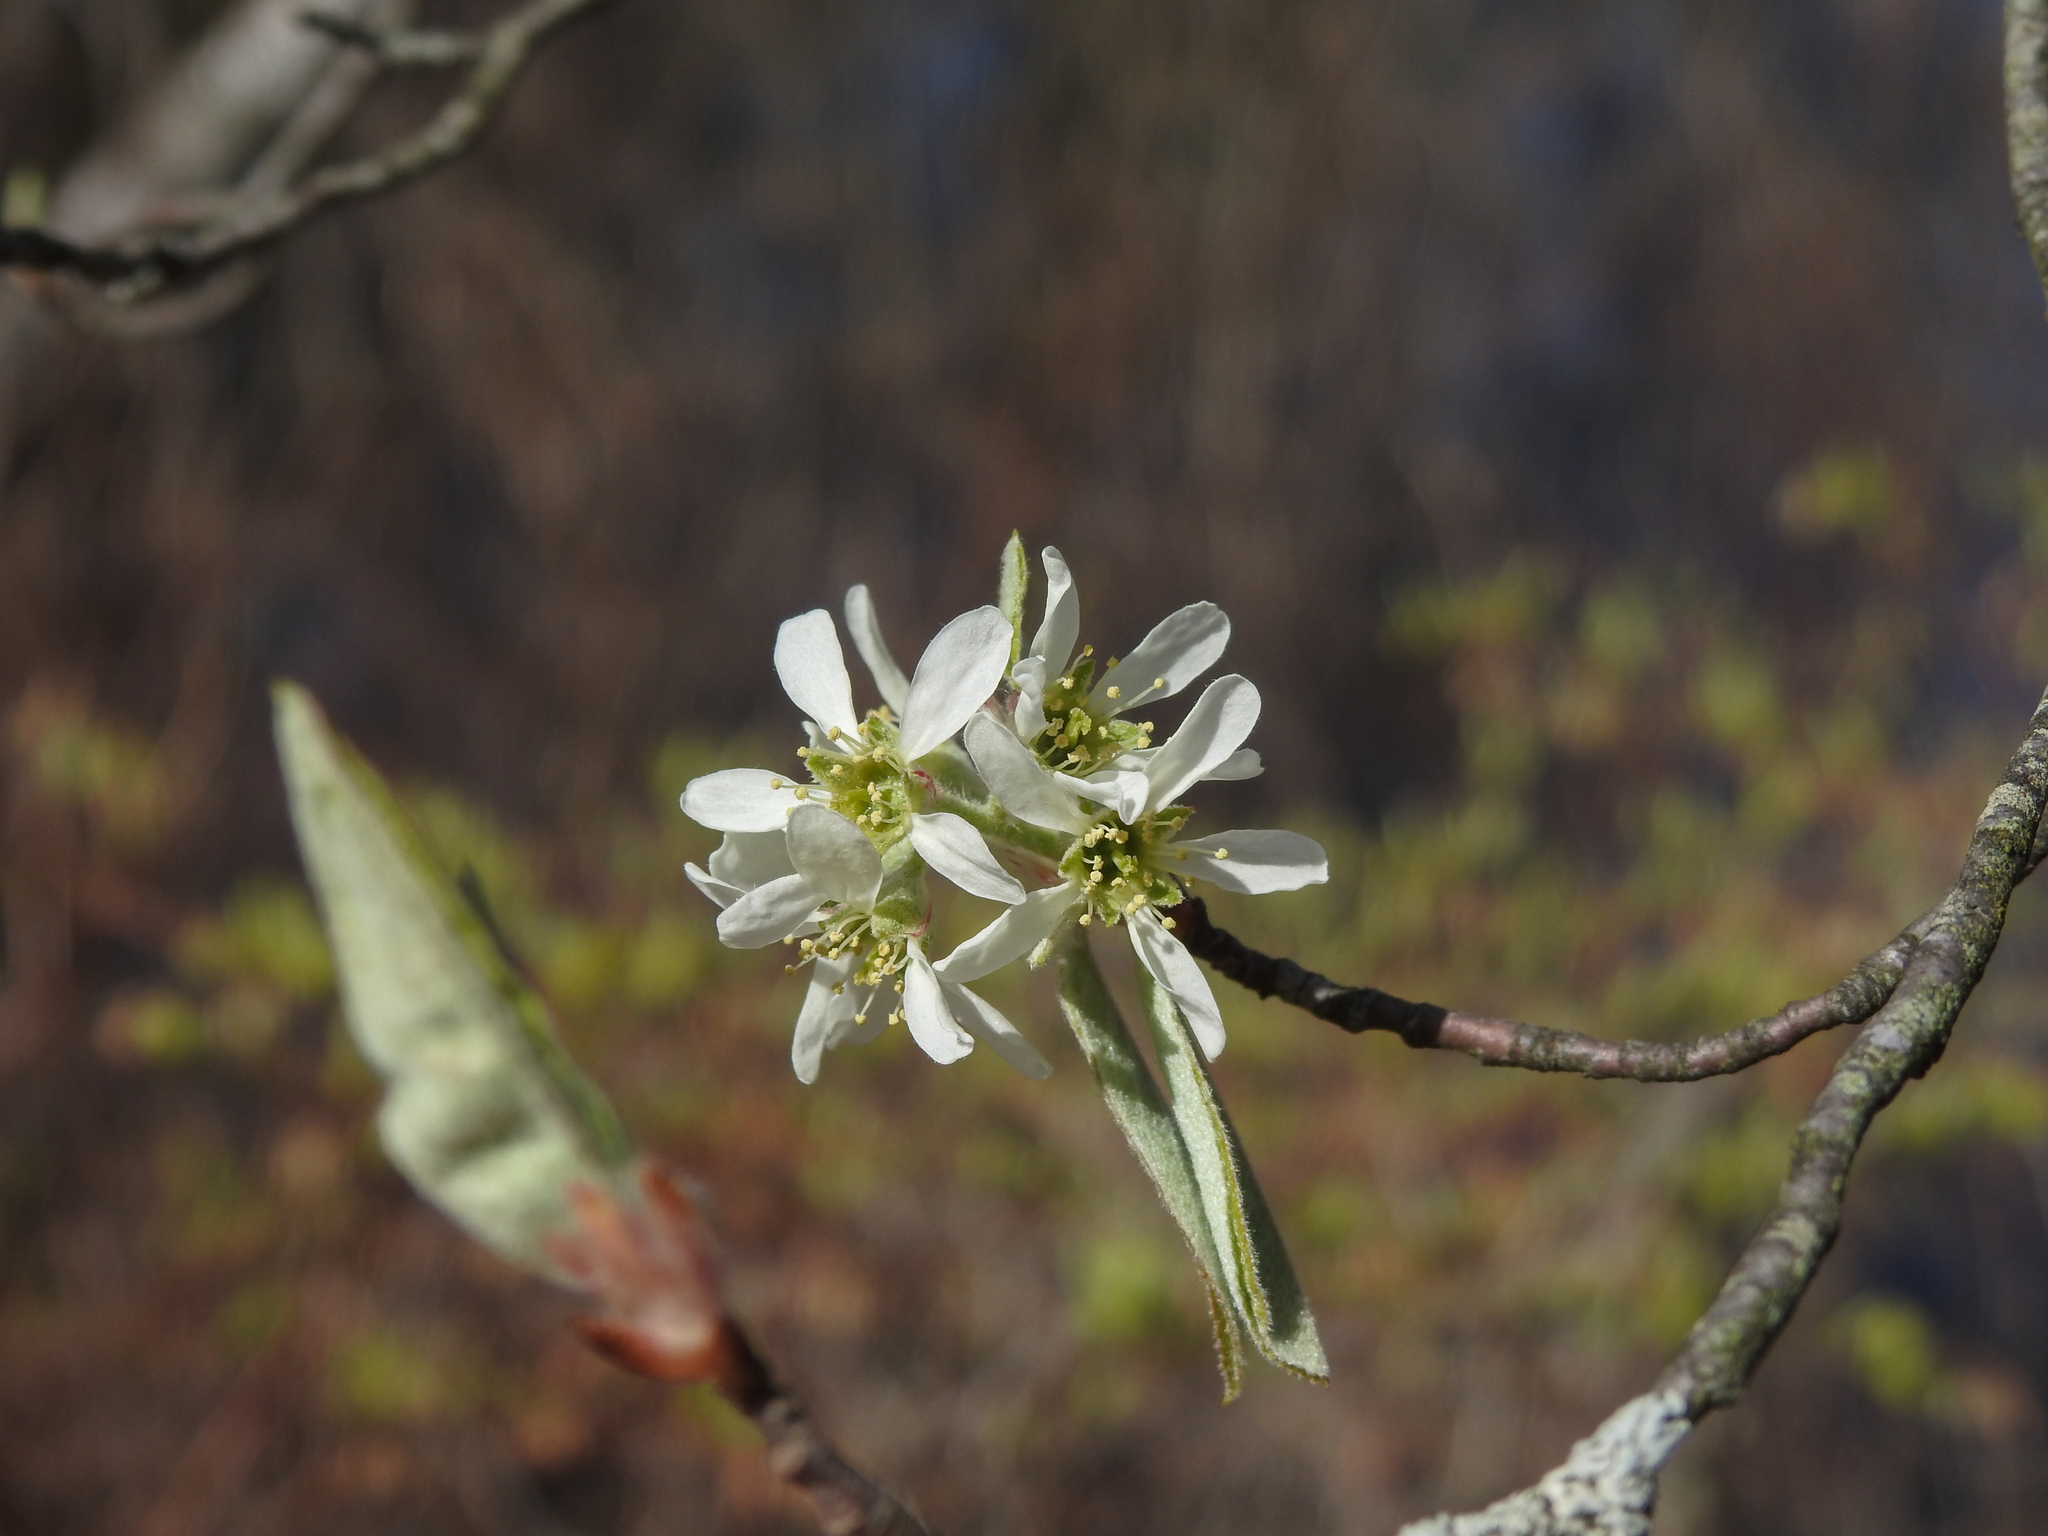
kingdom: Plantae
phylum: Tracheophyta
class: Magnoliopsida
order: Rosales
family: Rosaceae
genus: Amelanchier
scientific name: Amelanchier arborea
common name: Downy serviceberry
